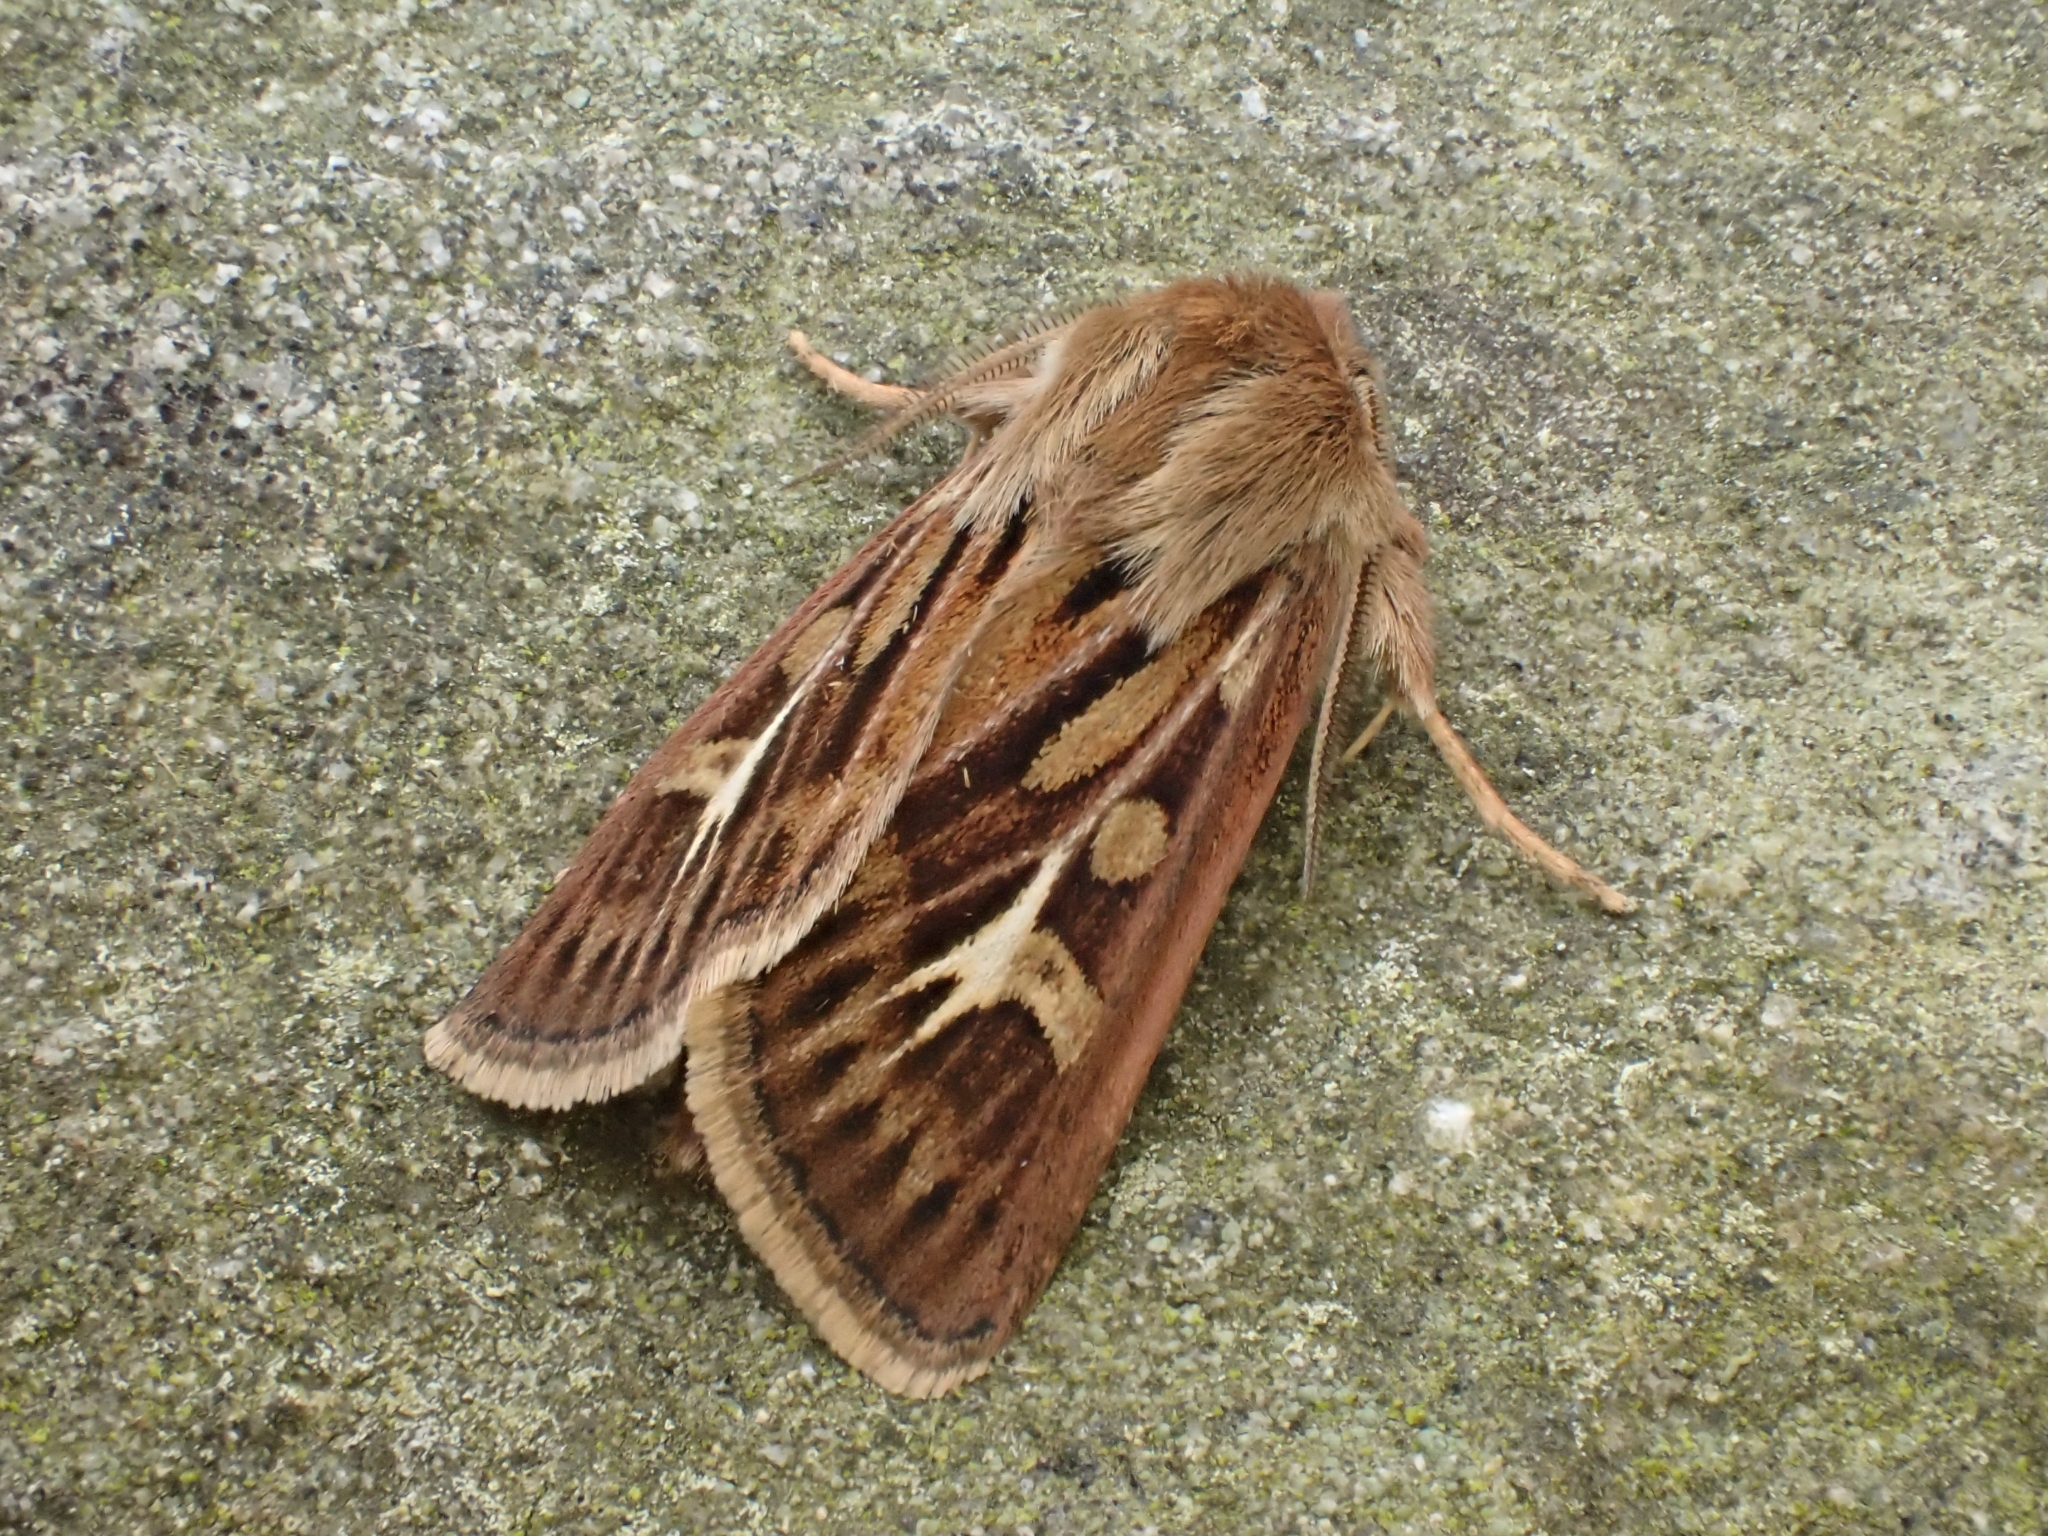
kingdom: Animalia
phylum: Arthropoda
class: Insecta
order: Lepidoptera
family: Noctuidae
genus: Cerapteryx
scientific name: Cerapteryx graminis
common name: Antler moth
